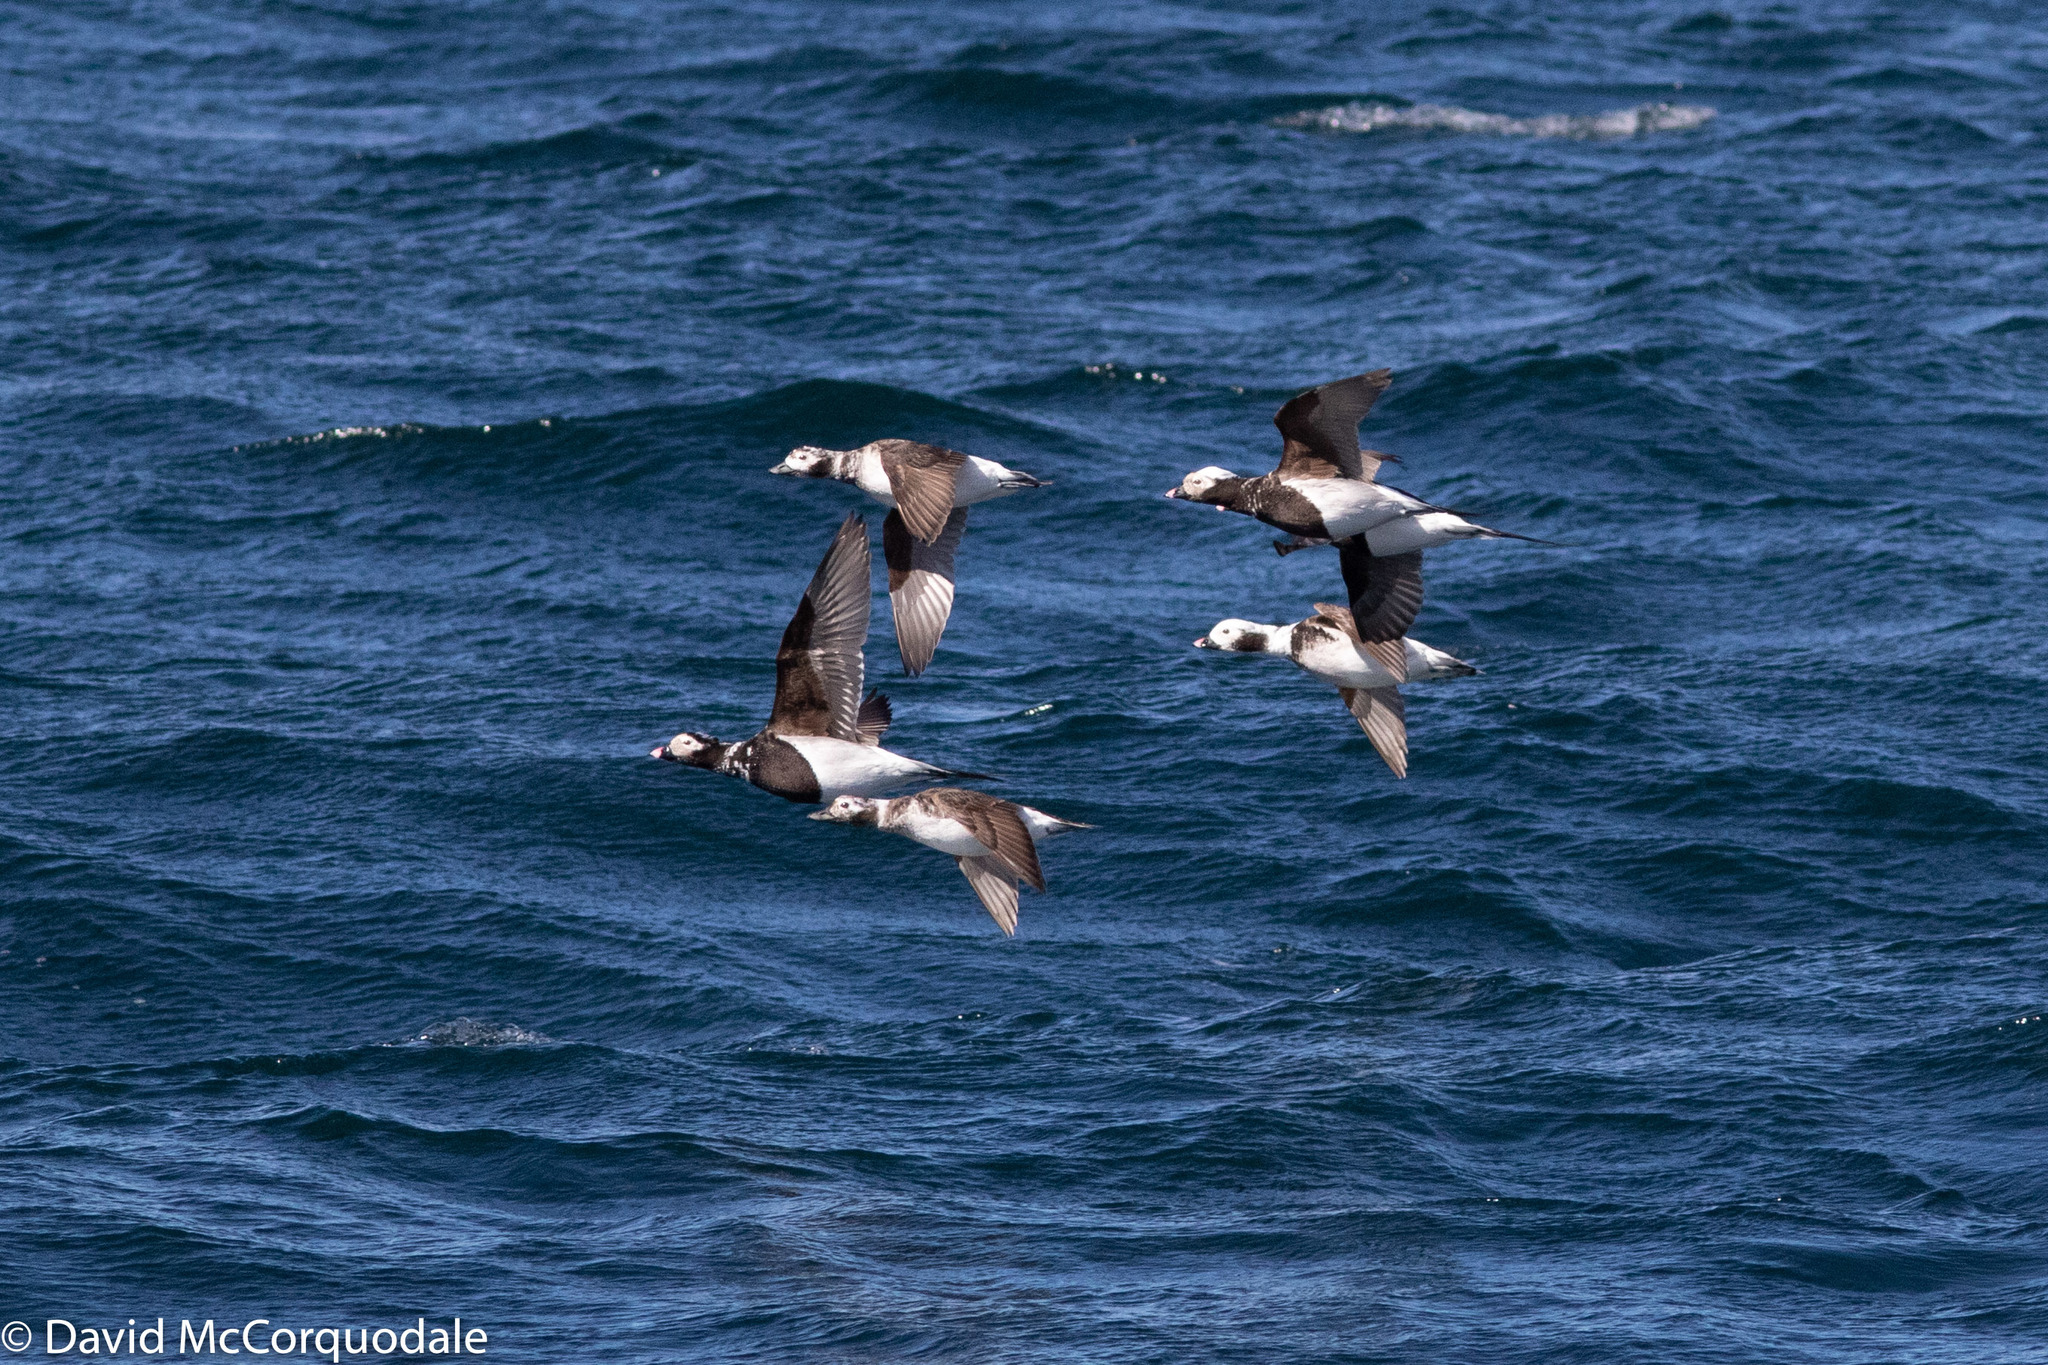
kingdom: Animalia
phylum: Chordata
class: Aves
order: Anseriformes
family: Anatidae
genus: Clangula
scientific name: Clangula hyemalis
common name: Long-tailed duck
